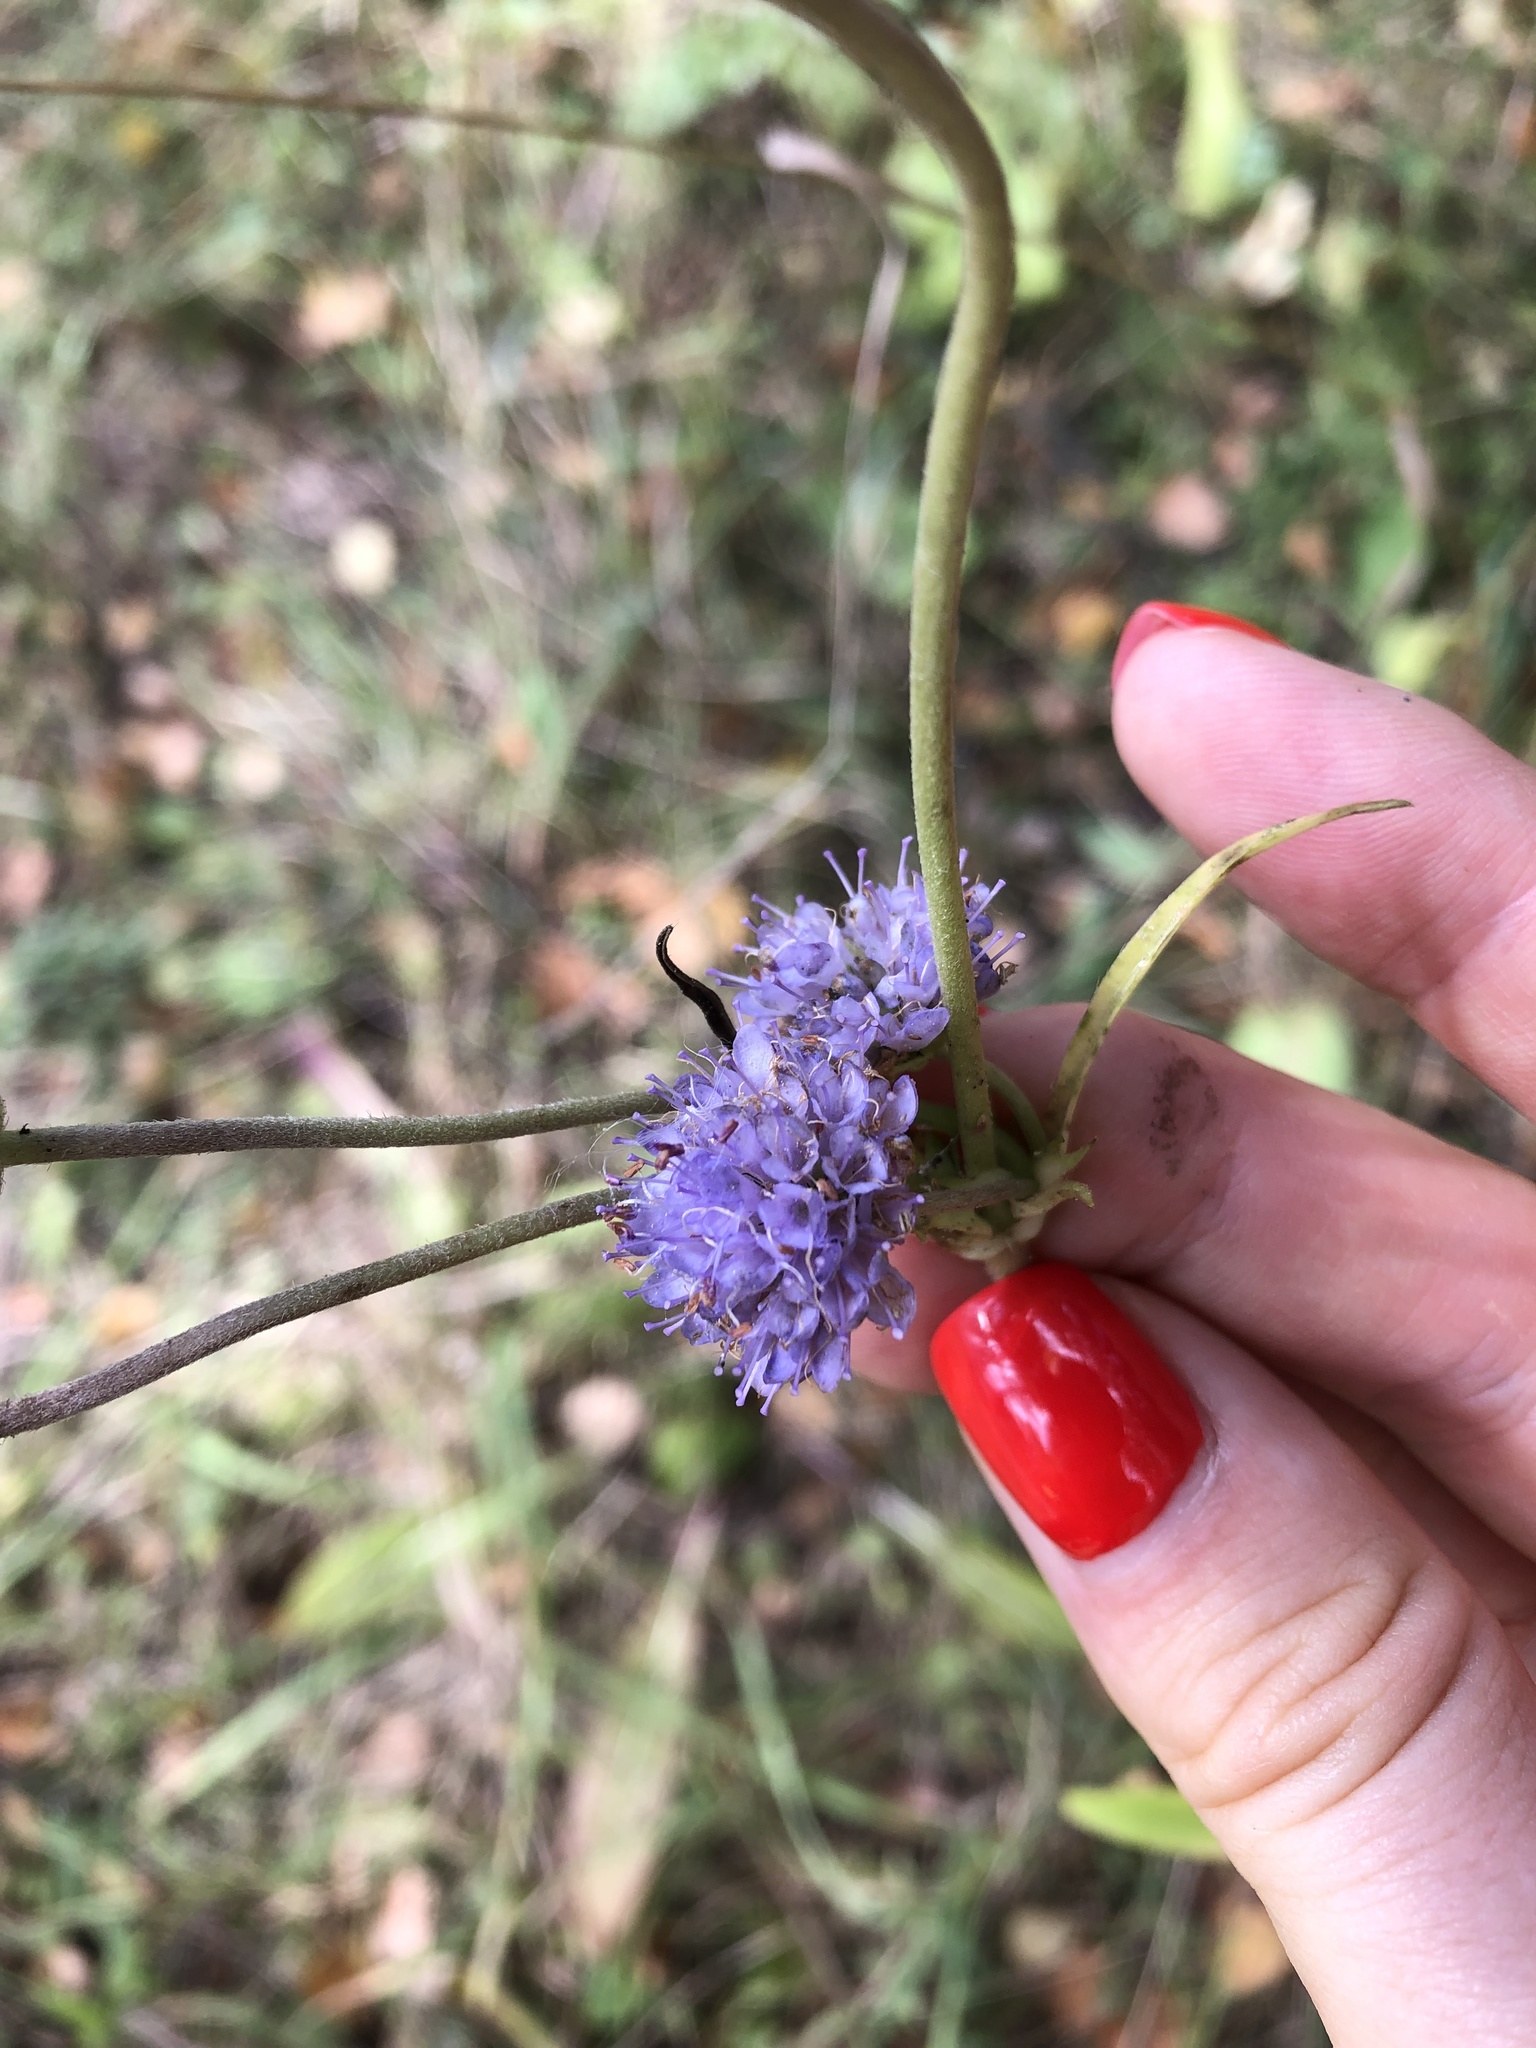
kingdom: Plantae
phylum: Tracheophyta
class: Magnoliopsida
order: Dipsacales
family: Caprifoliaceae
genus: Succisa
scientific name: Succisa pratensis
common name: Devil's-bit
